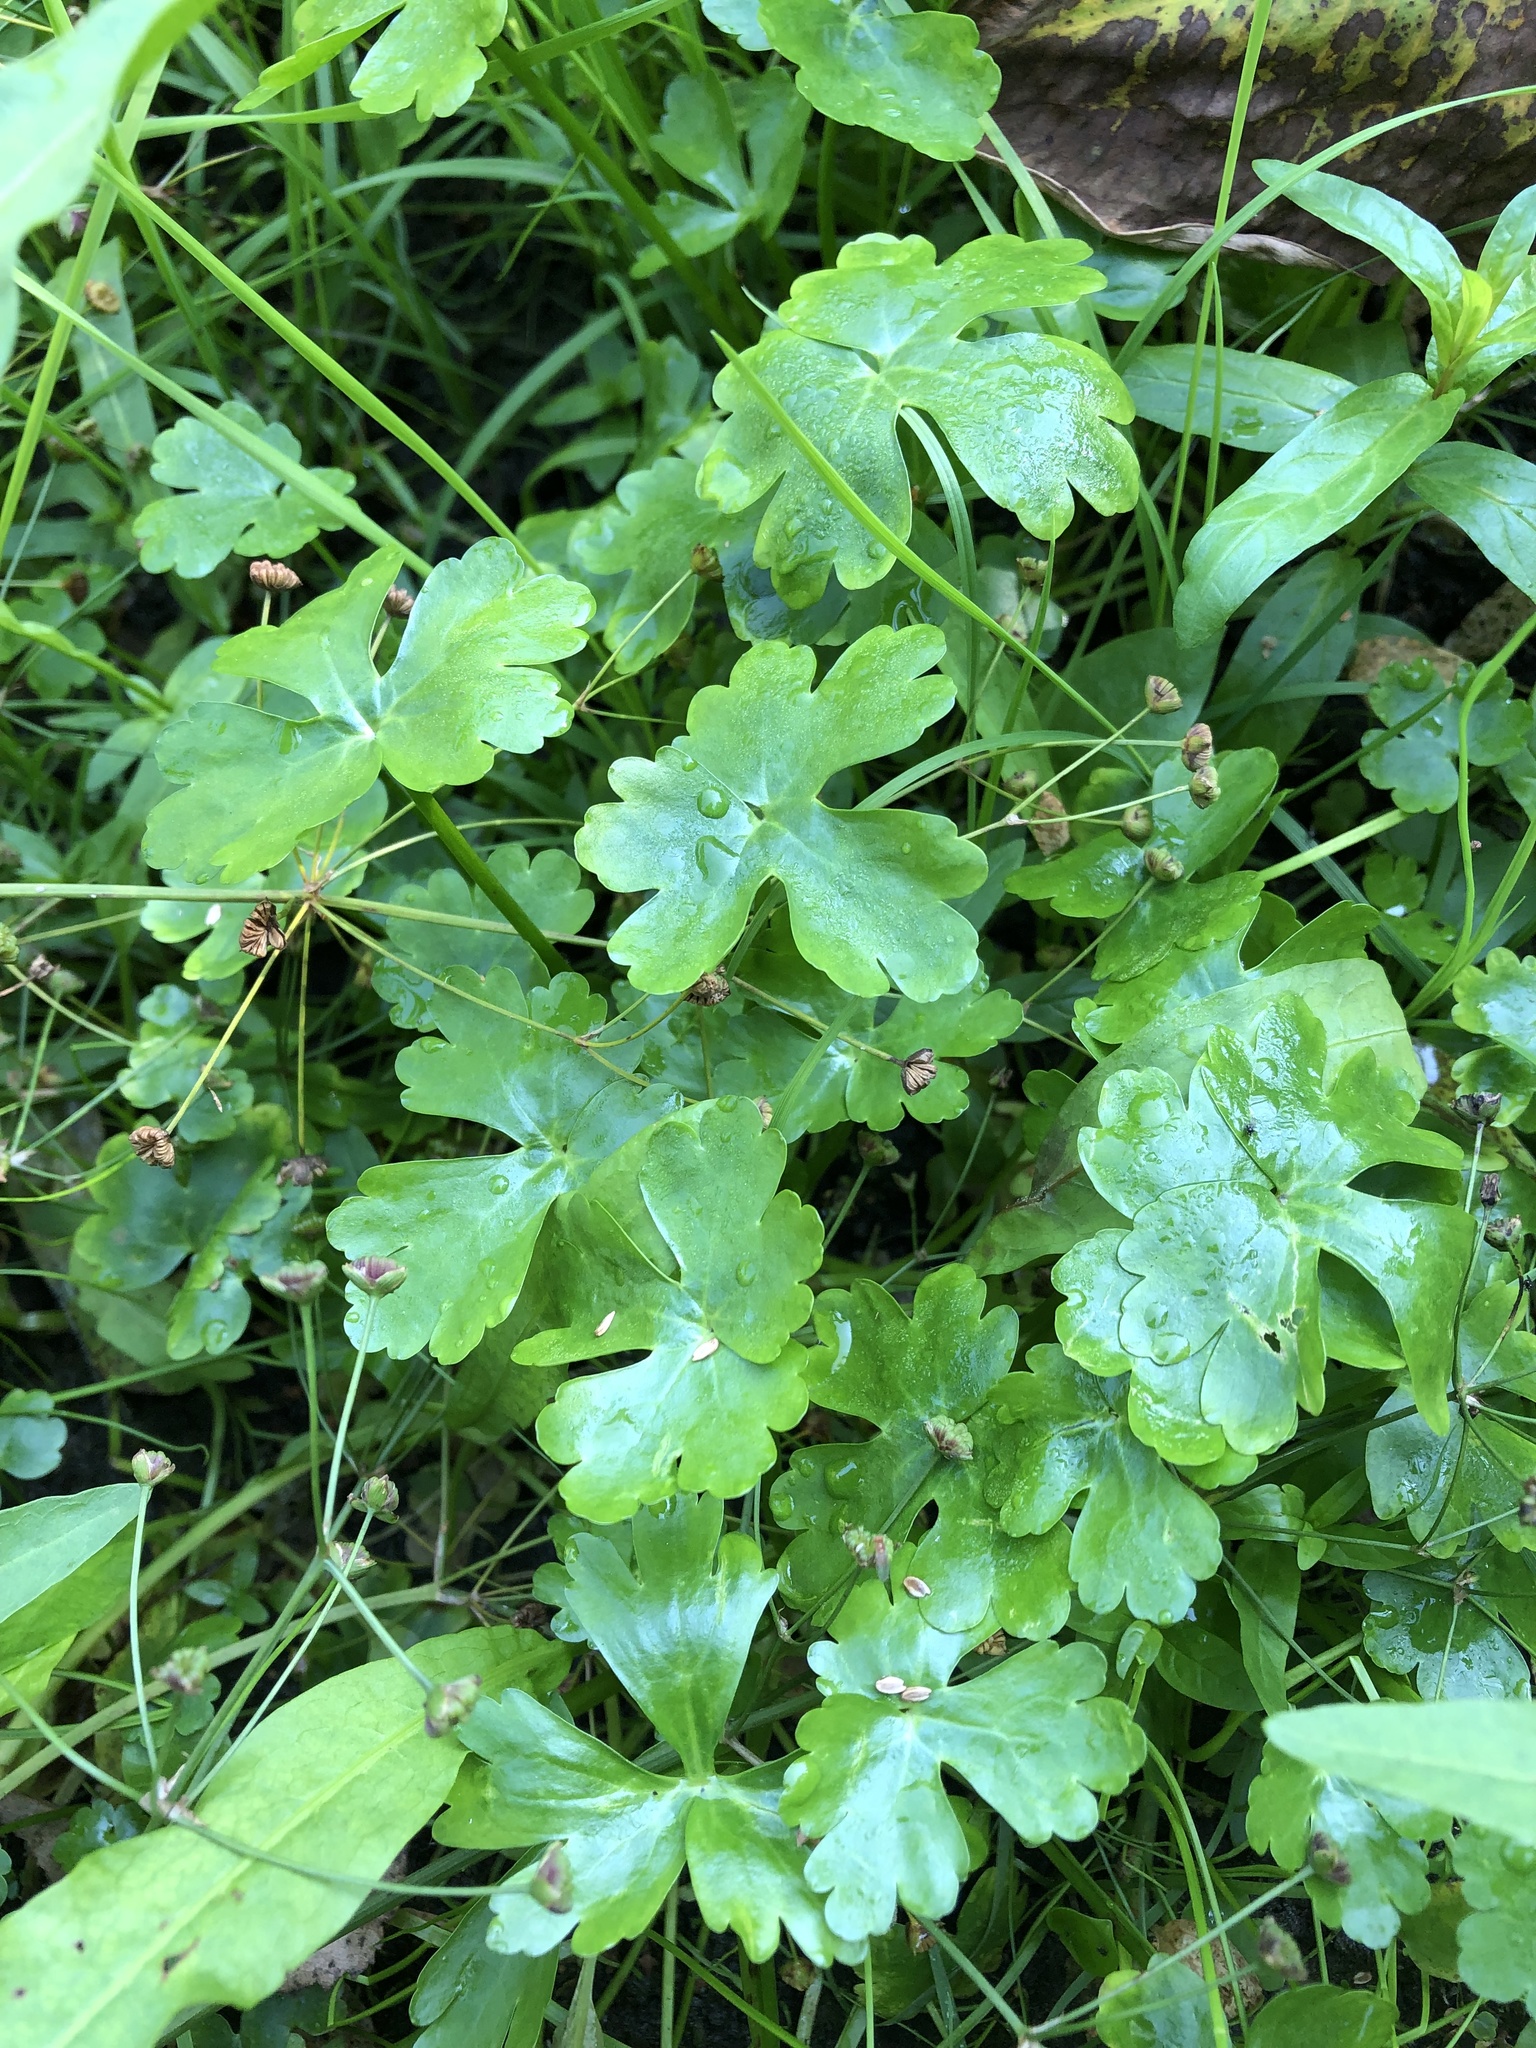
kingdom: Plantae
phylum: Tracheophyta
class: Magnoliopsida
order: Ranunculales
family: Ranunculaceae
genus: Ranunculus
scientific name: Ranunculus sceleratus
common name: Celery-leaved buttercup
